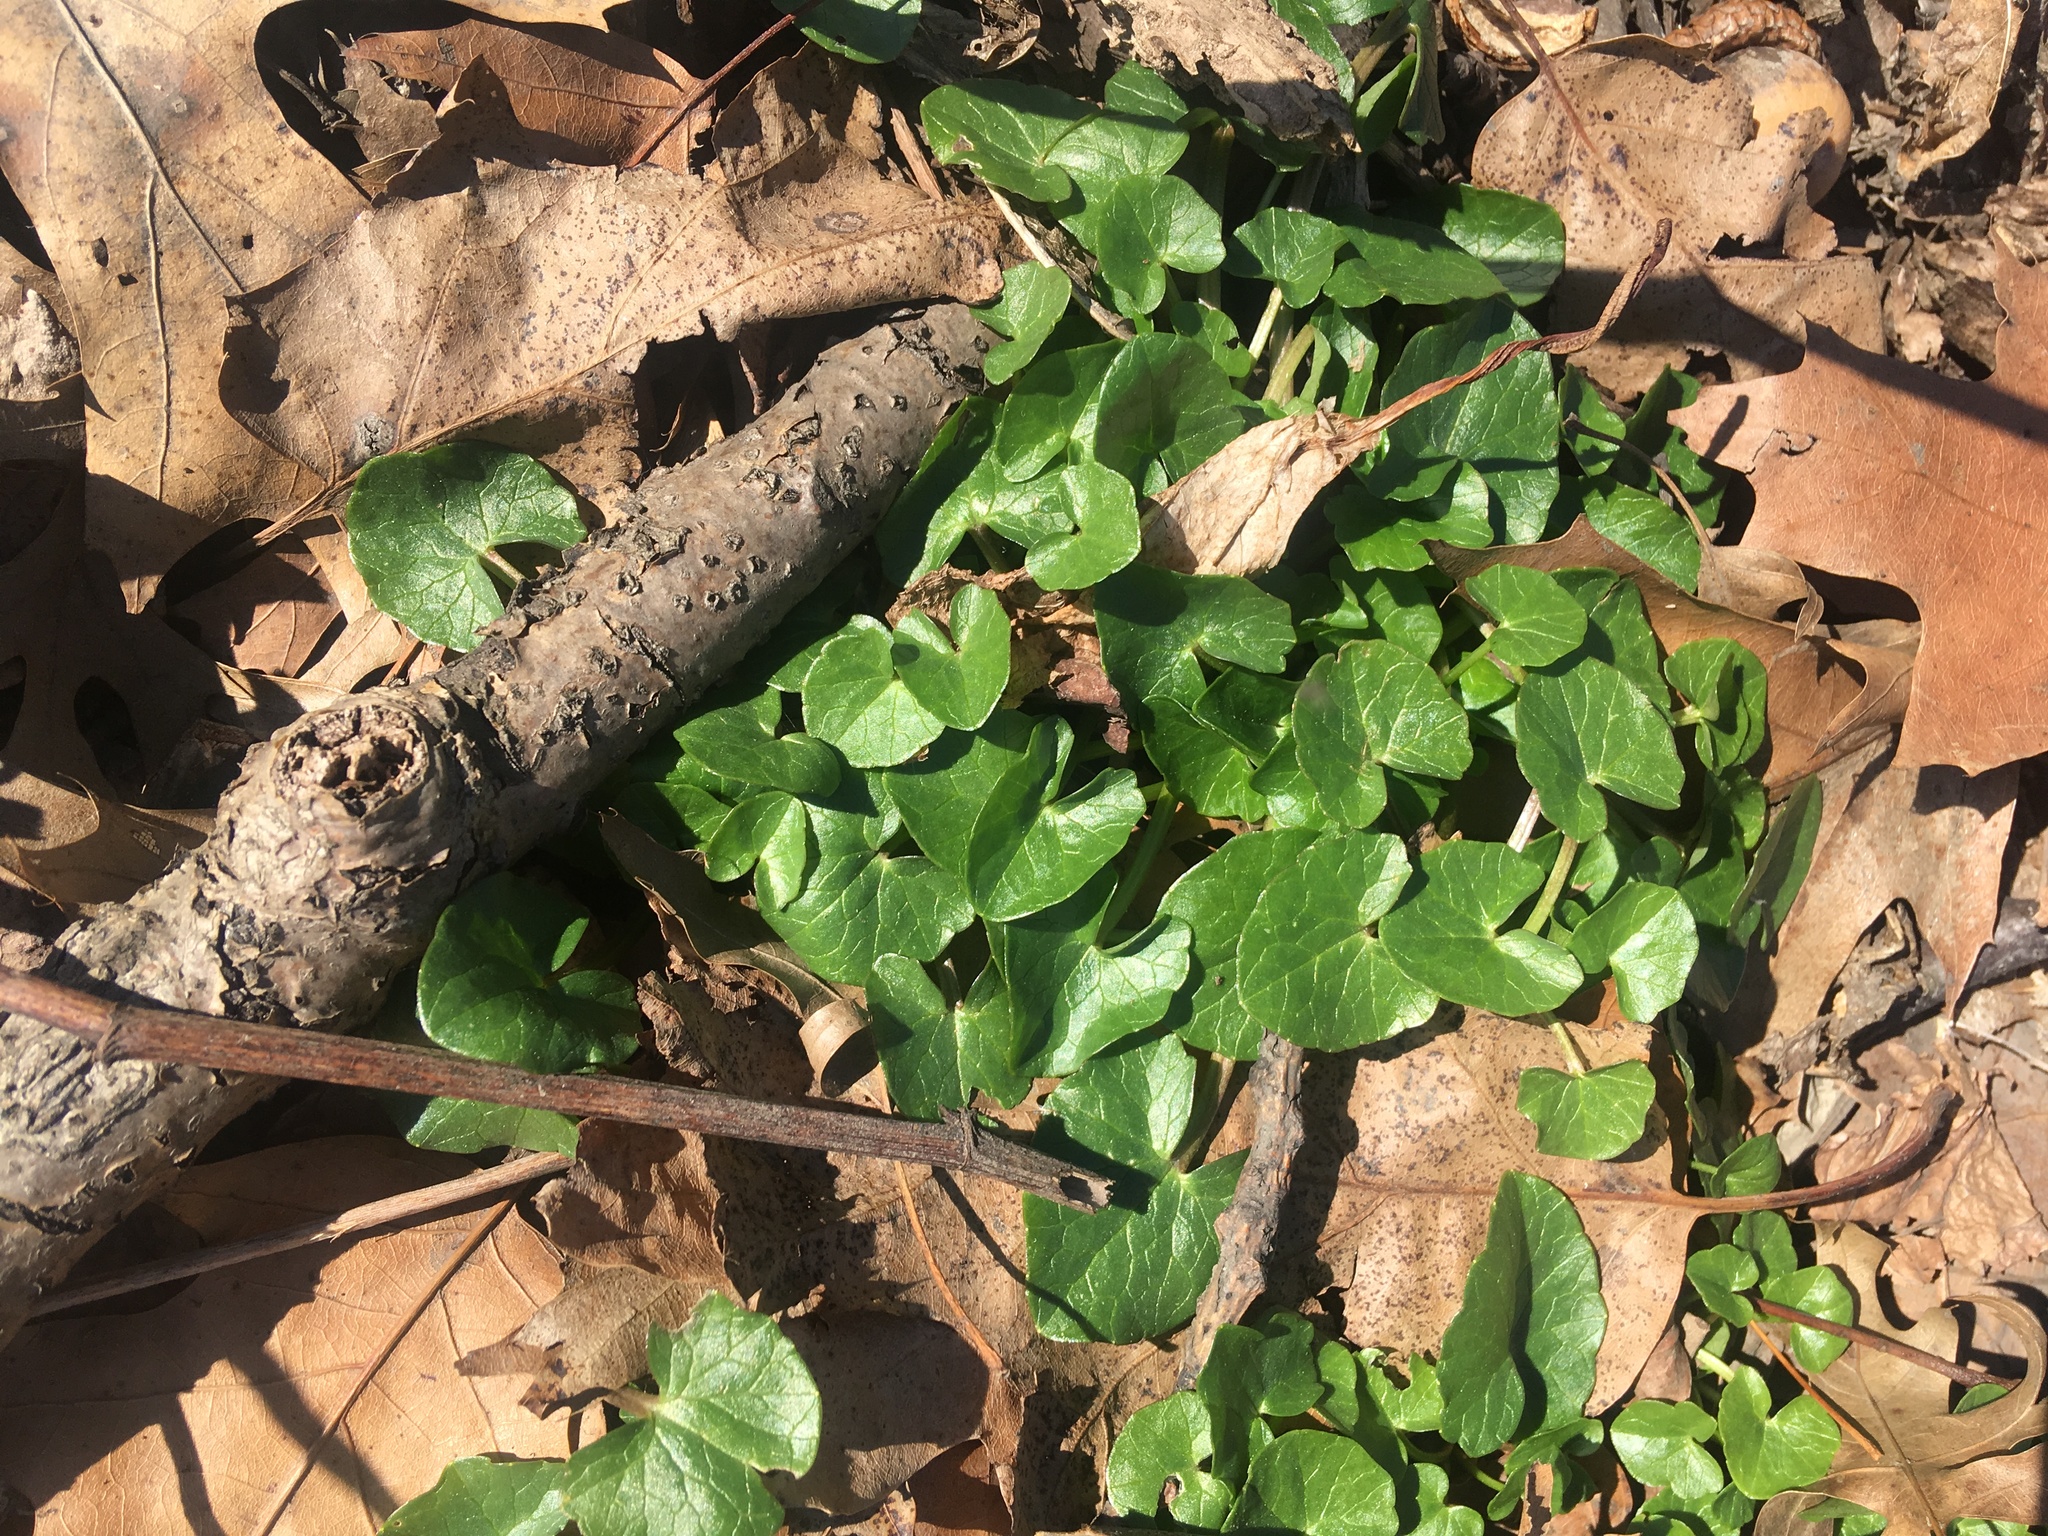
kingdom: Plantae
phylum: Tracheophyta
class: Magnoliopsida
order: Ranunculales
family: Ranunculaceae
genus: Ficaria
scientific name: Ficaria verna
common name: Lesser celandine
